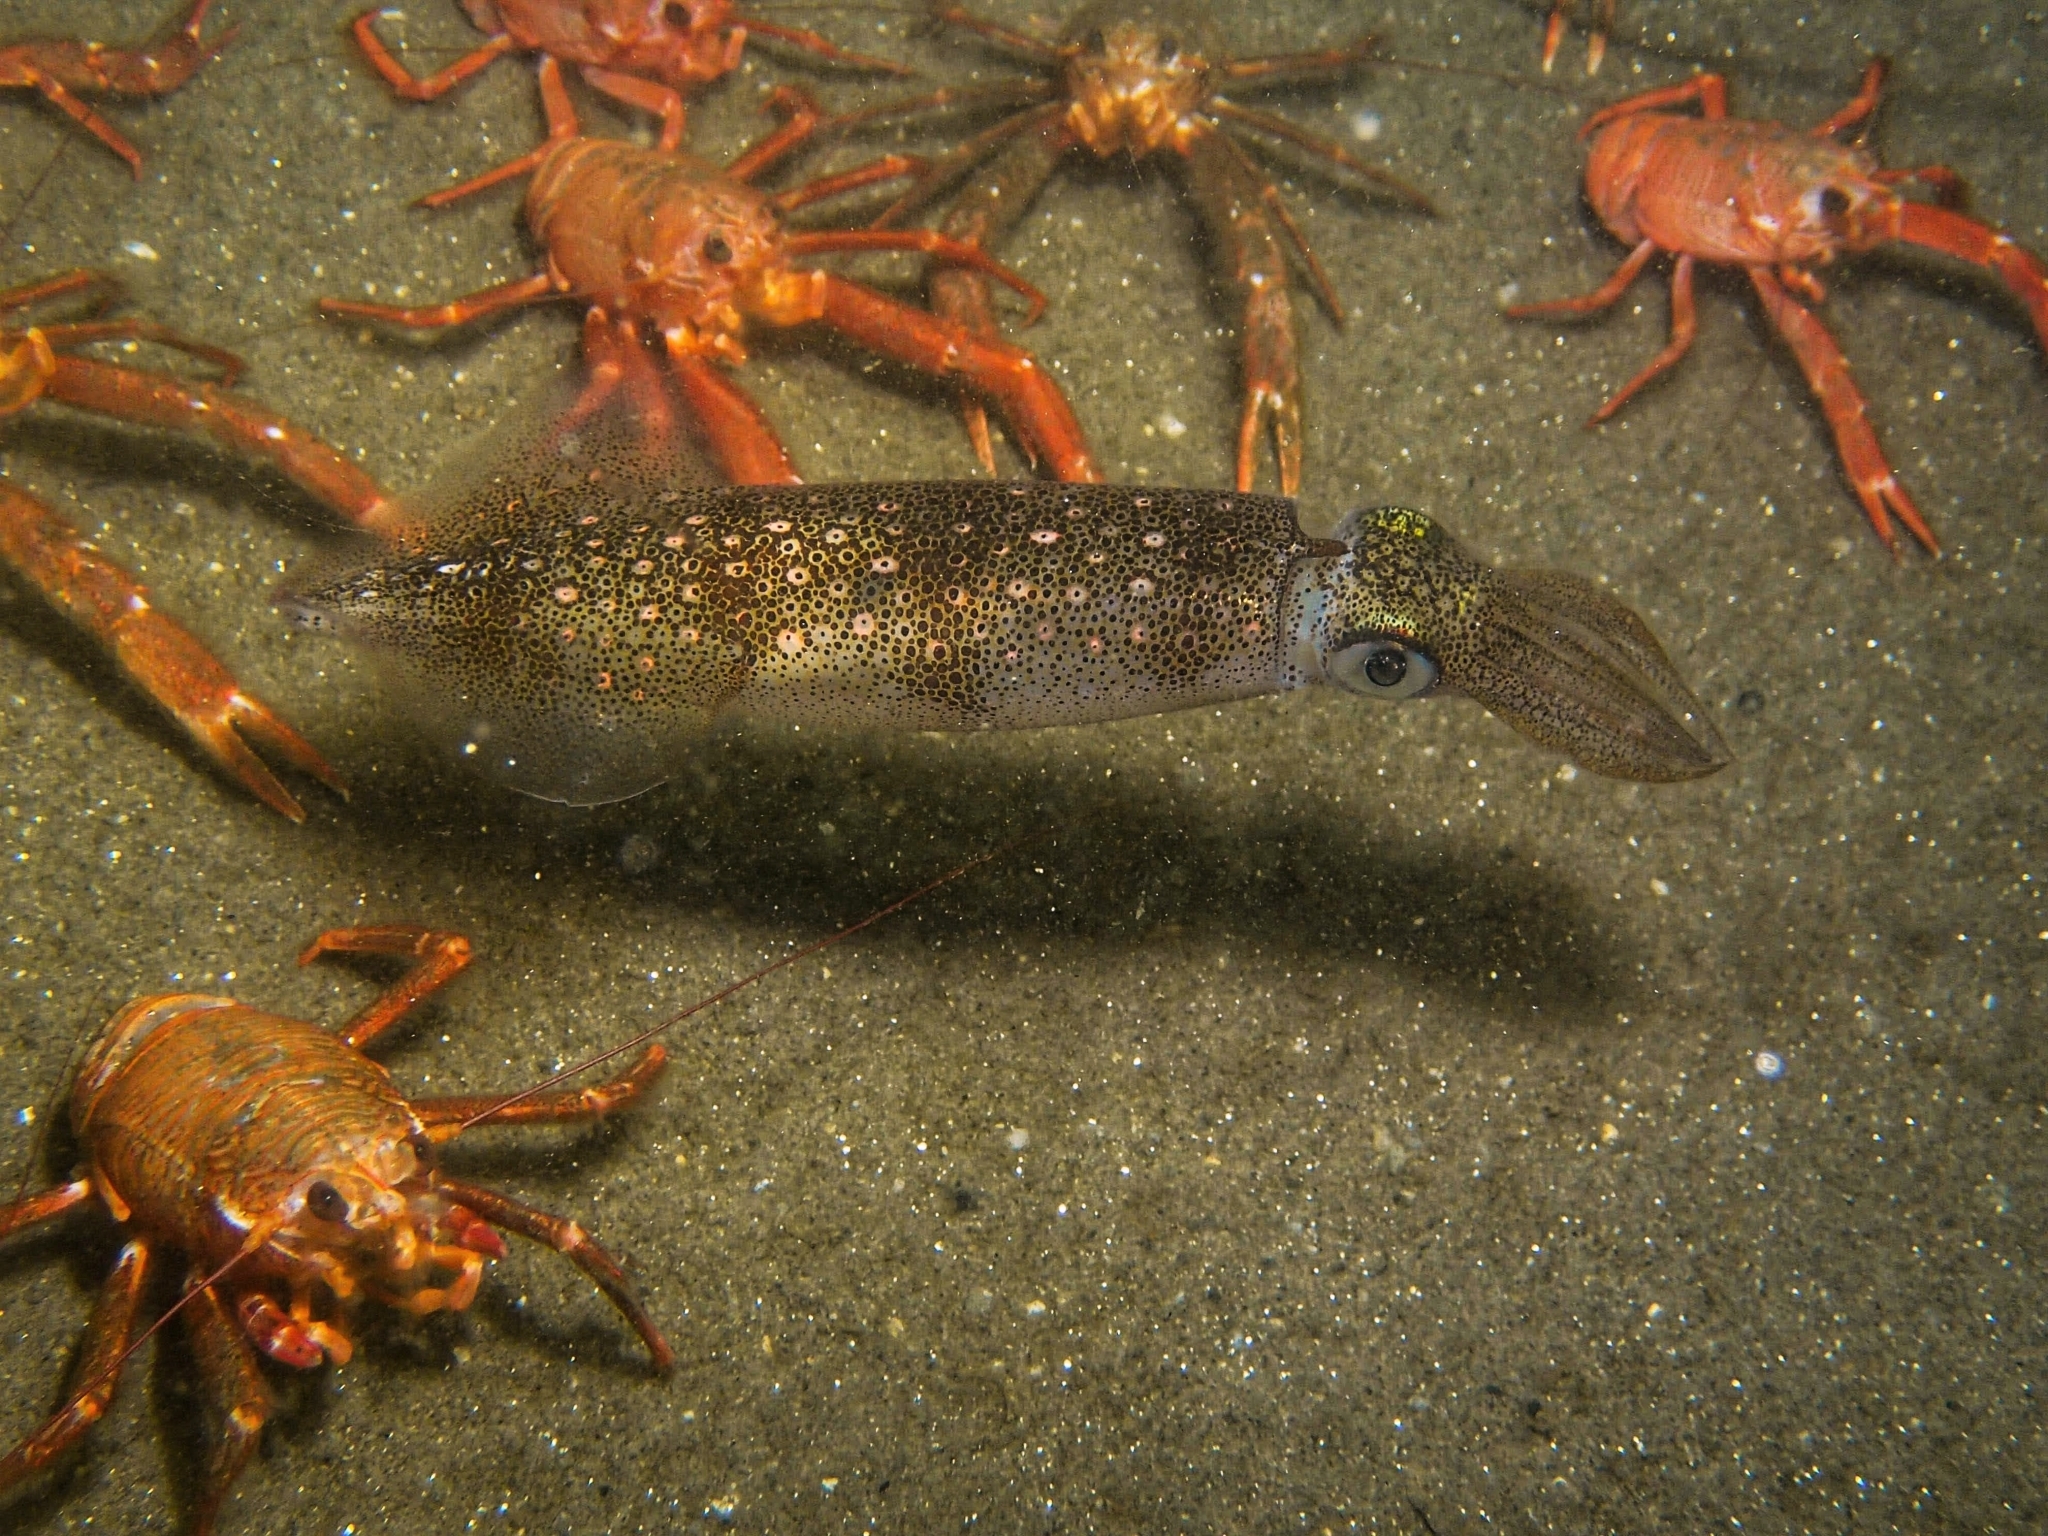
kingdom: Animalia
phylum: Mollusca
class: Cephalopoda
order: Myopsida
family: Loliginidae
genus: Doryteuthis
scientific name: Doryteuthis opalescens
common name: Opalescent inshore squid
